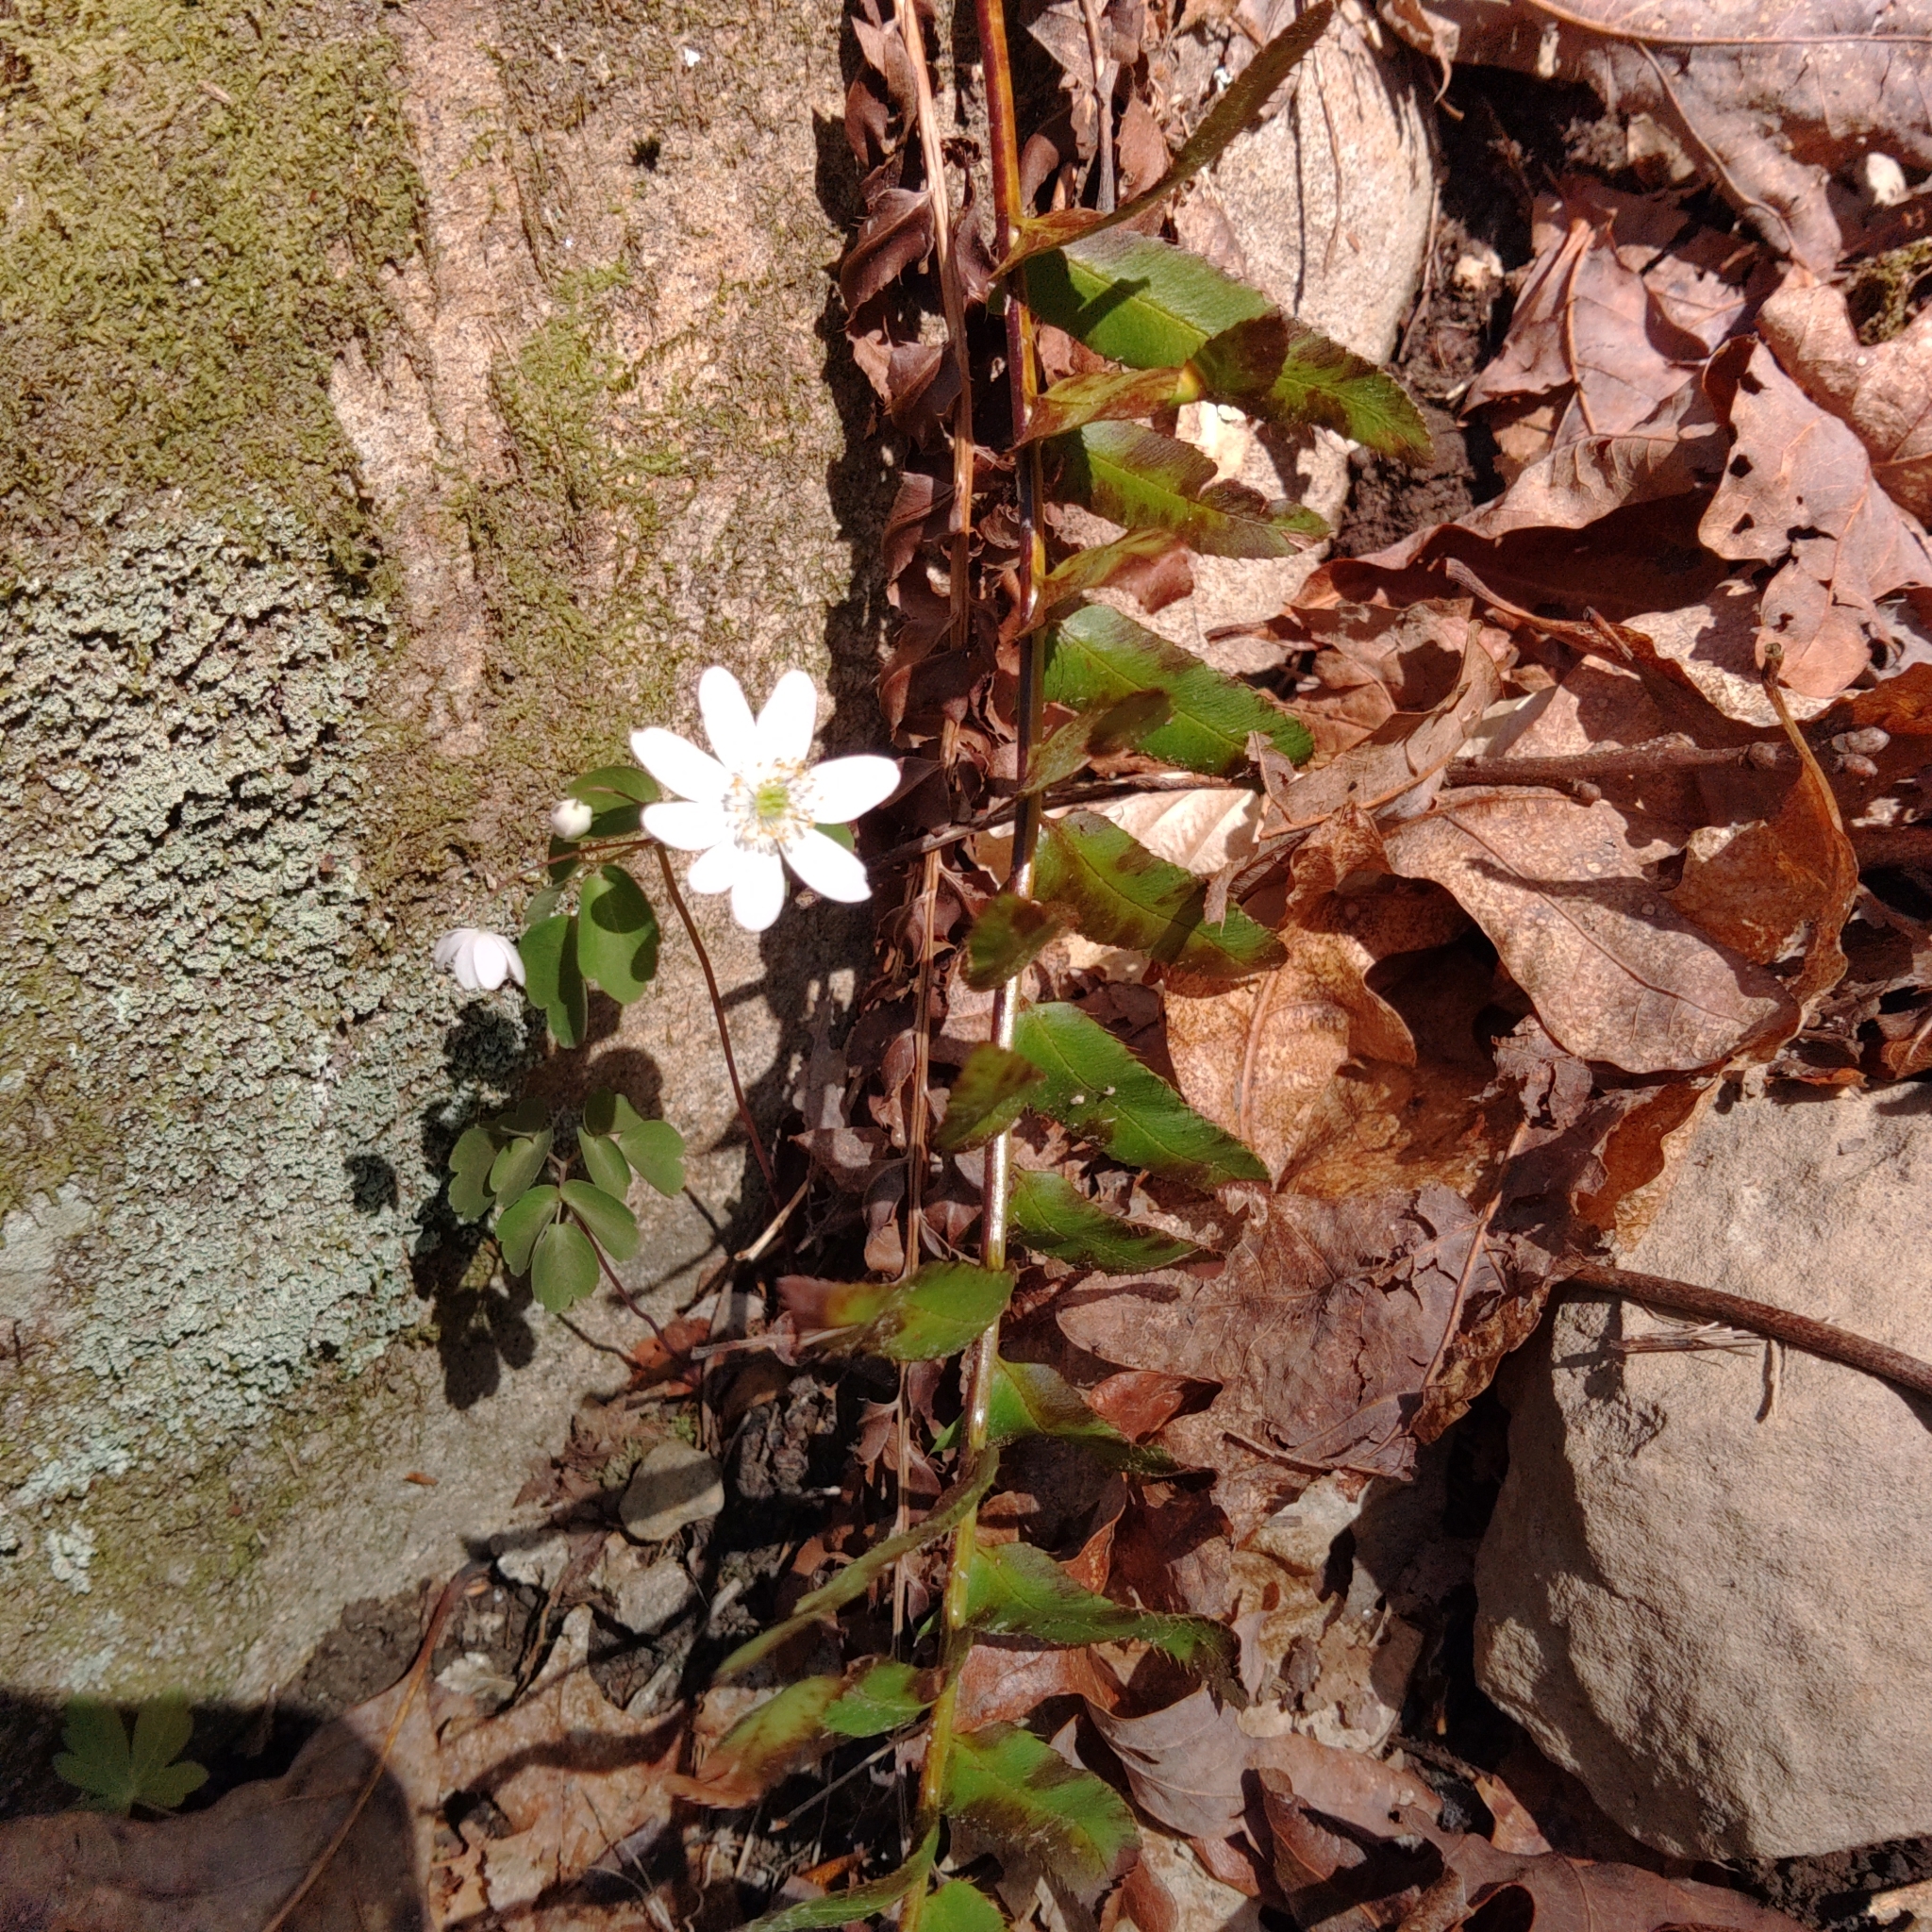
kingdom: Plantae
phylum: Tracheophyta
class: Magnoliopsida
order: Ranunculales
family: Ranunculaceae
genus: Thalictrum
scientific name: Thalictrum thalictroides
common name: Rue-anemone
